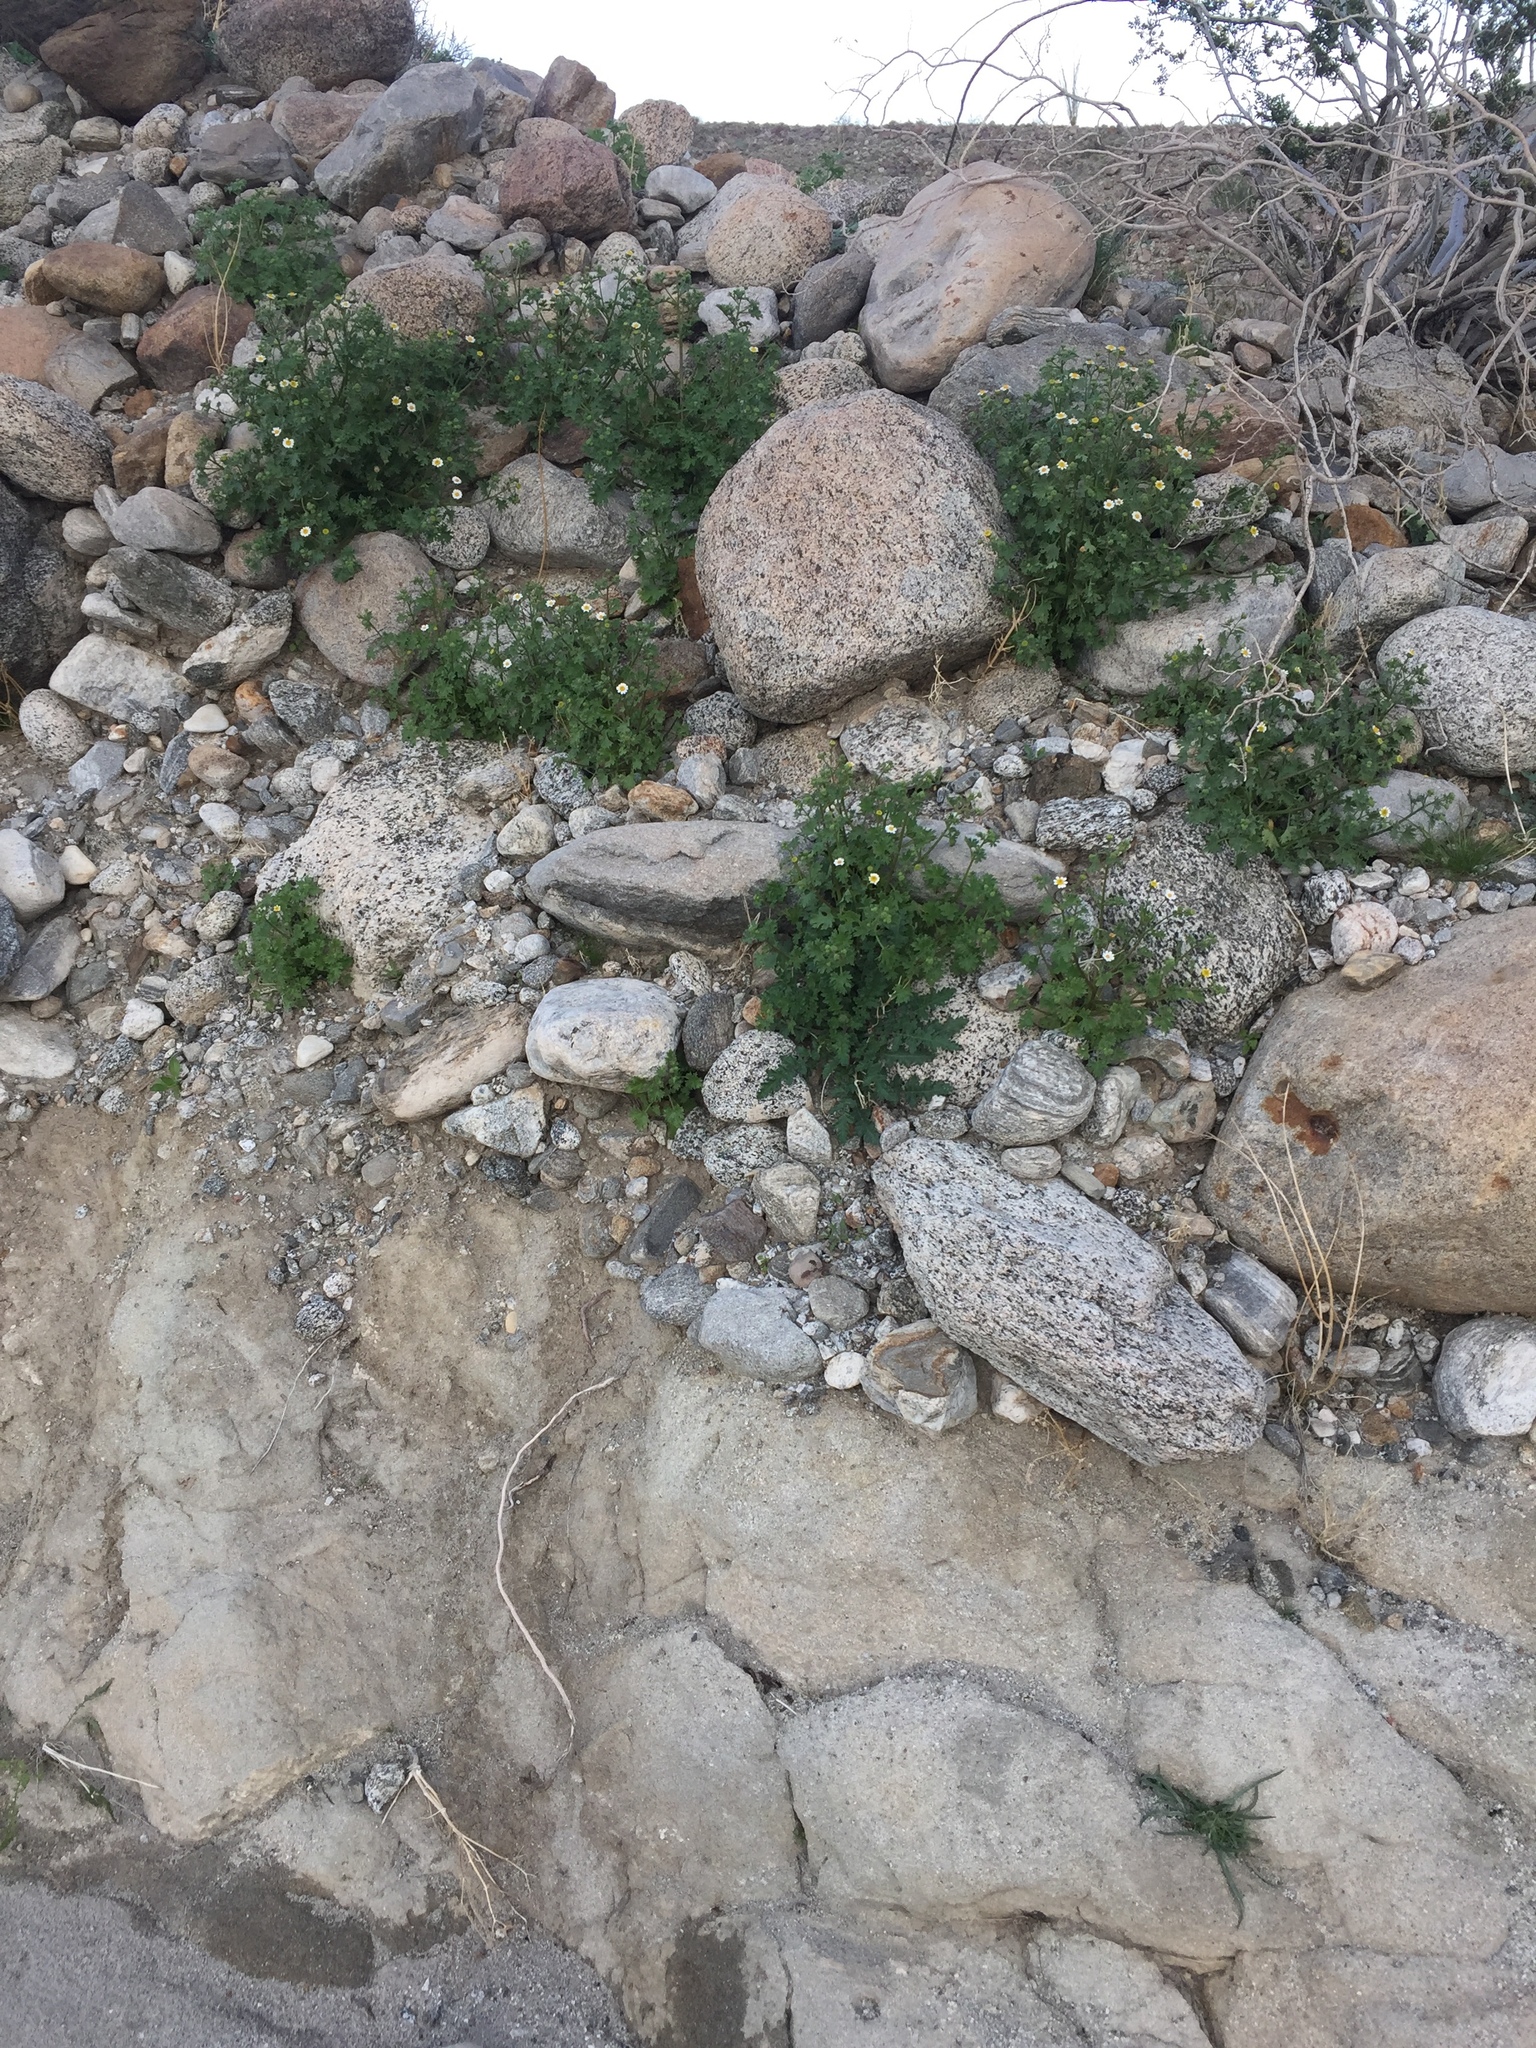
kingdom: Plantae
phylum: Tracheophyta
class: Magnoliopsida
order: Asterales
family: Asteraceae
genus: Laphamia
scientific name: Laphamia emoryi
